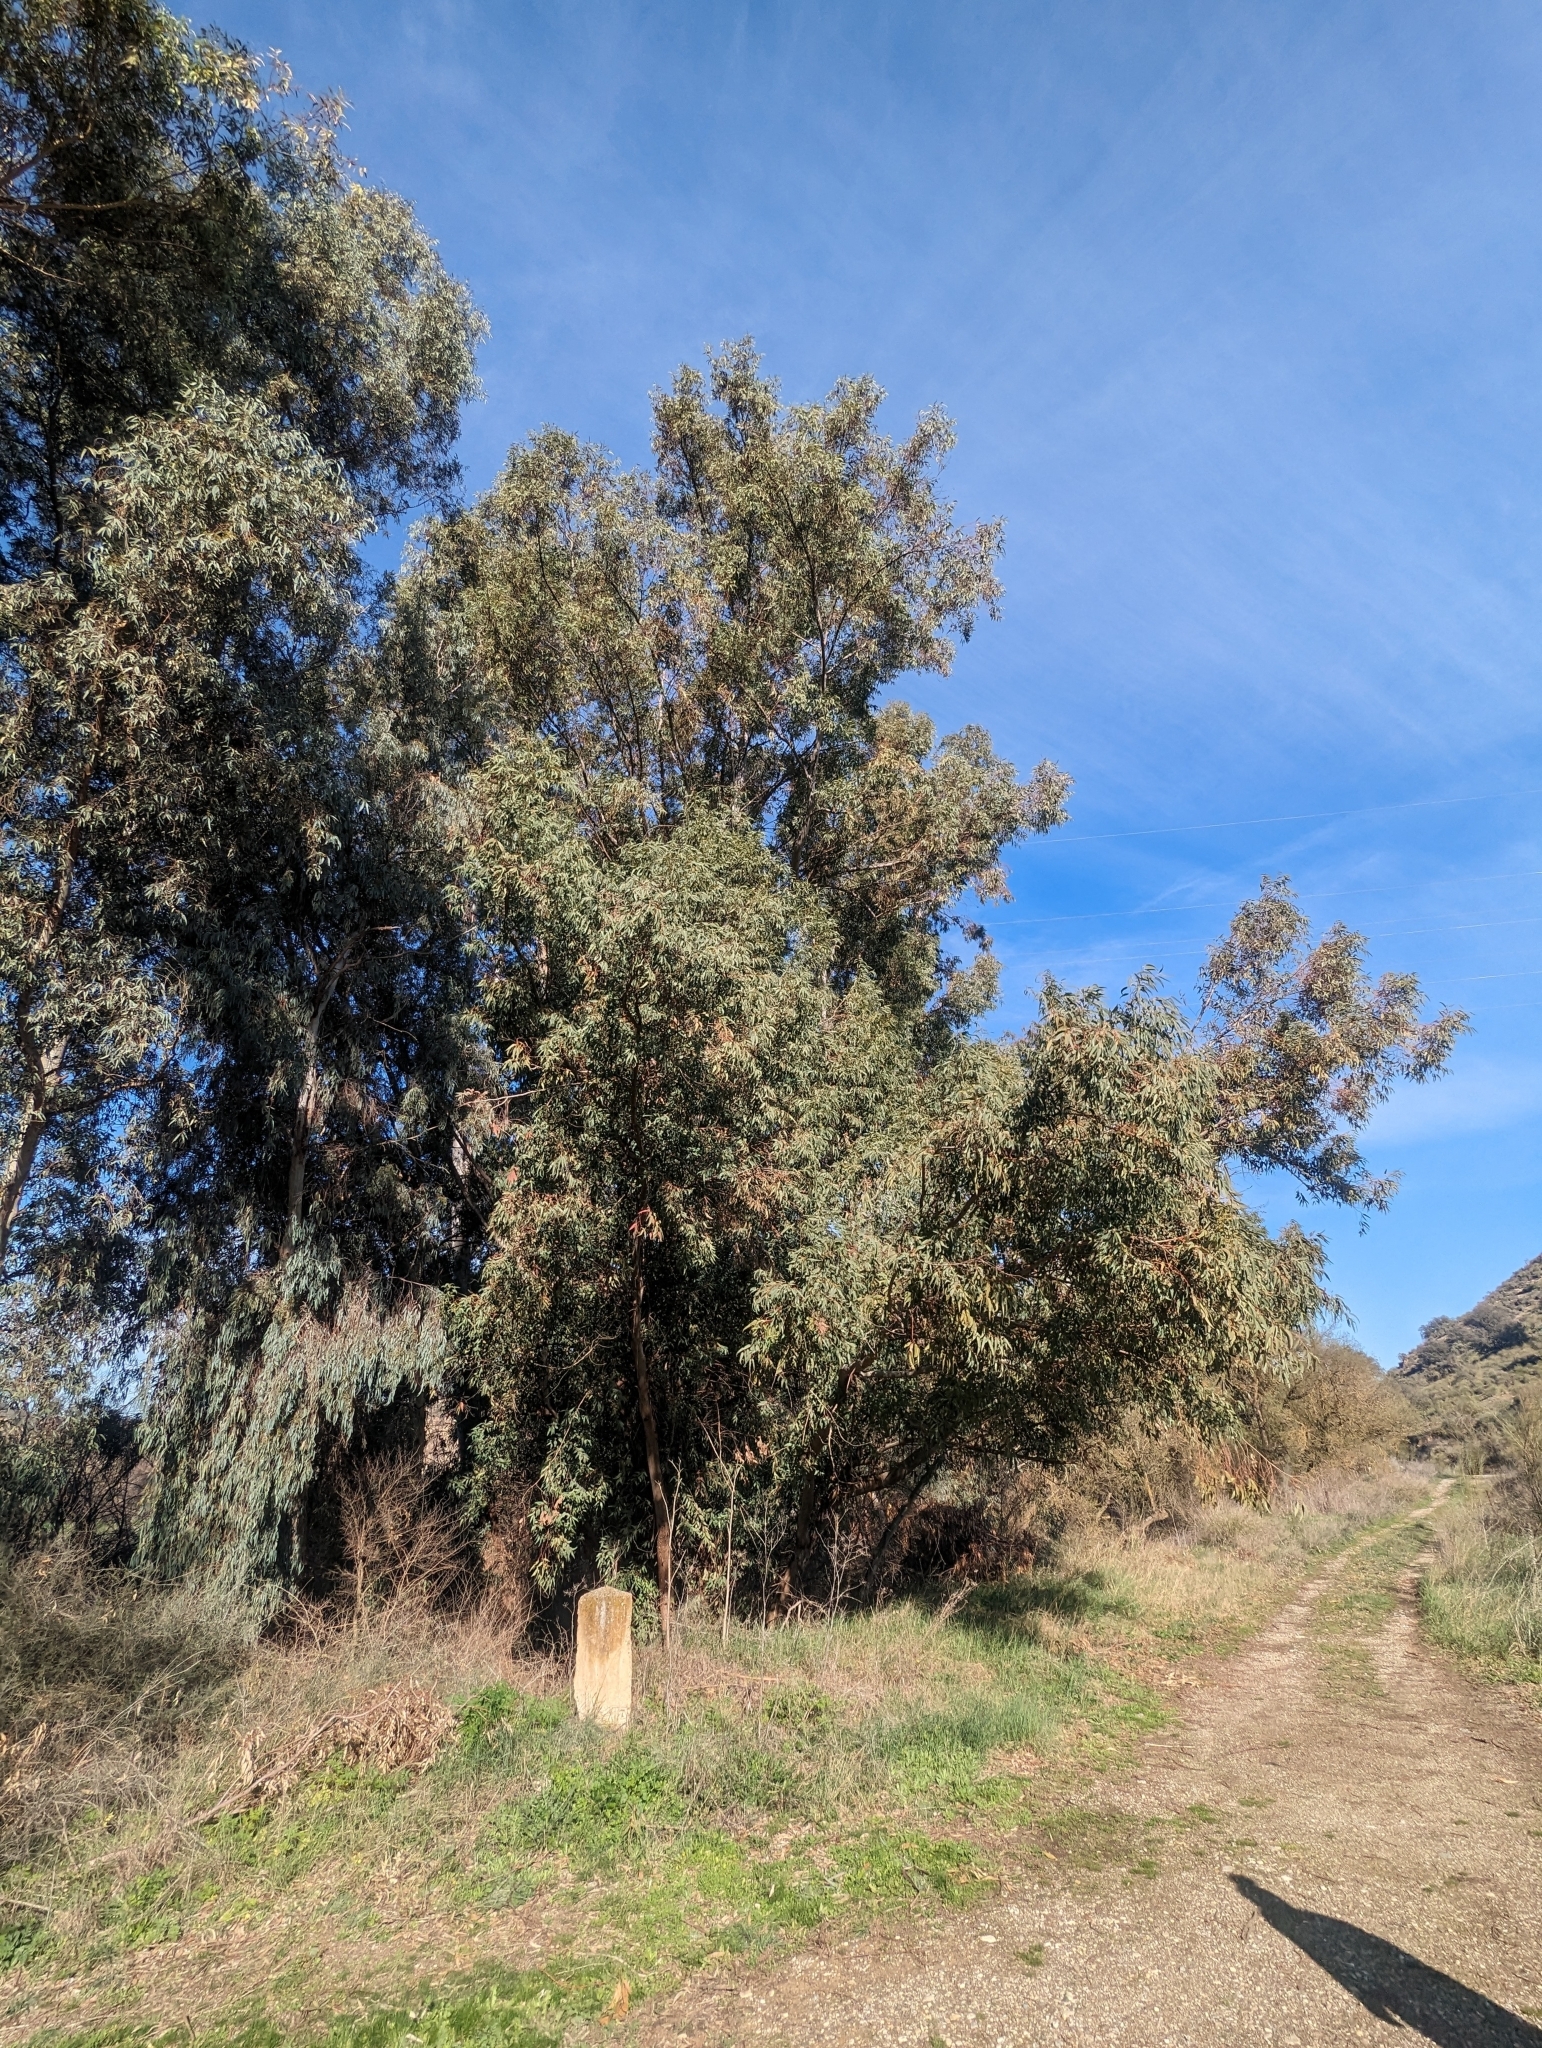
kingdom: Plantae
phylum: Tracheophyta
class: Magnoliopsida
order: Myrtales
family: Myrtaceae
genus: Eucalyptus
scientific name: Eucalyptus camaldulensis
